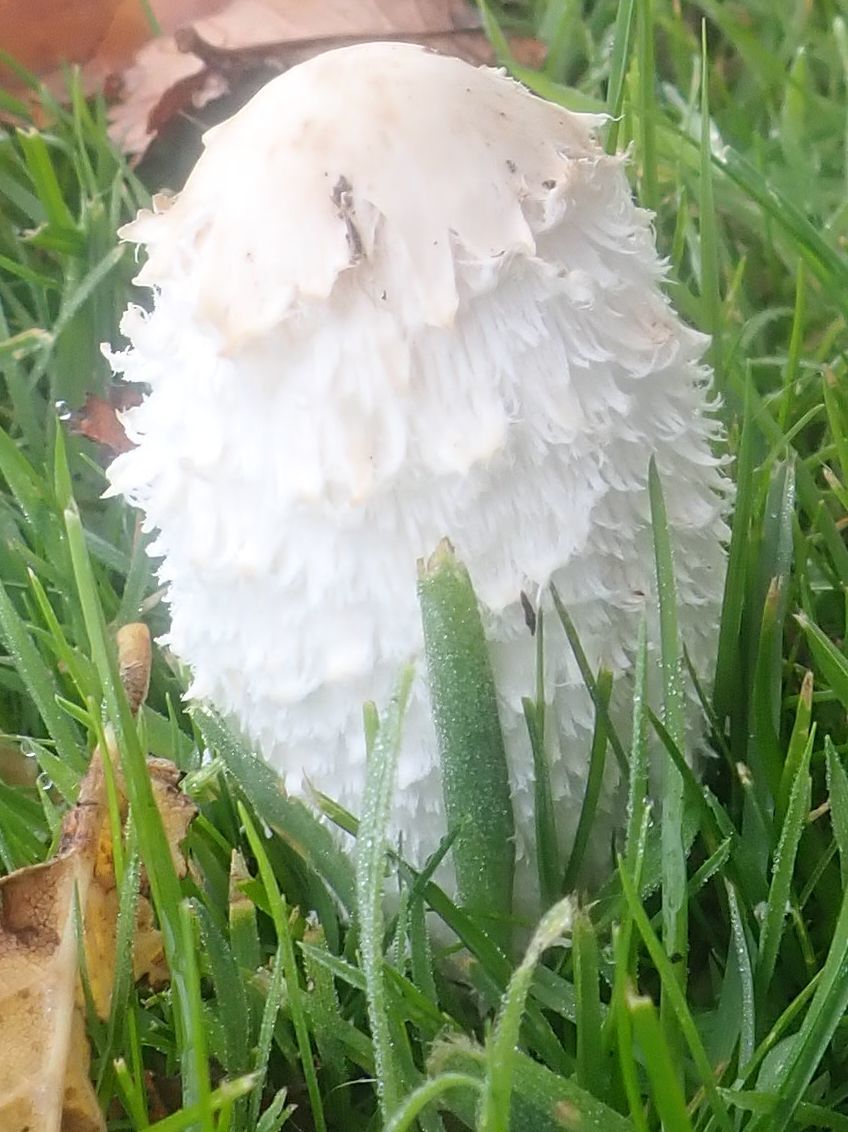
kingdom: Fungi
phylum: Basidiomycota
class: Agaricomycetes
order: Agaricales
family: Agaricaceae
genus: Coprinus
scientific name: Coprinus comatus
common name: Lawyer's wig
